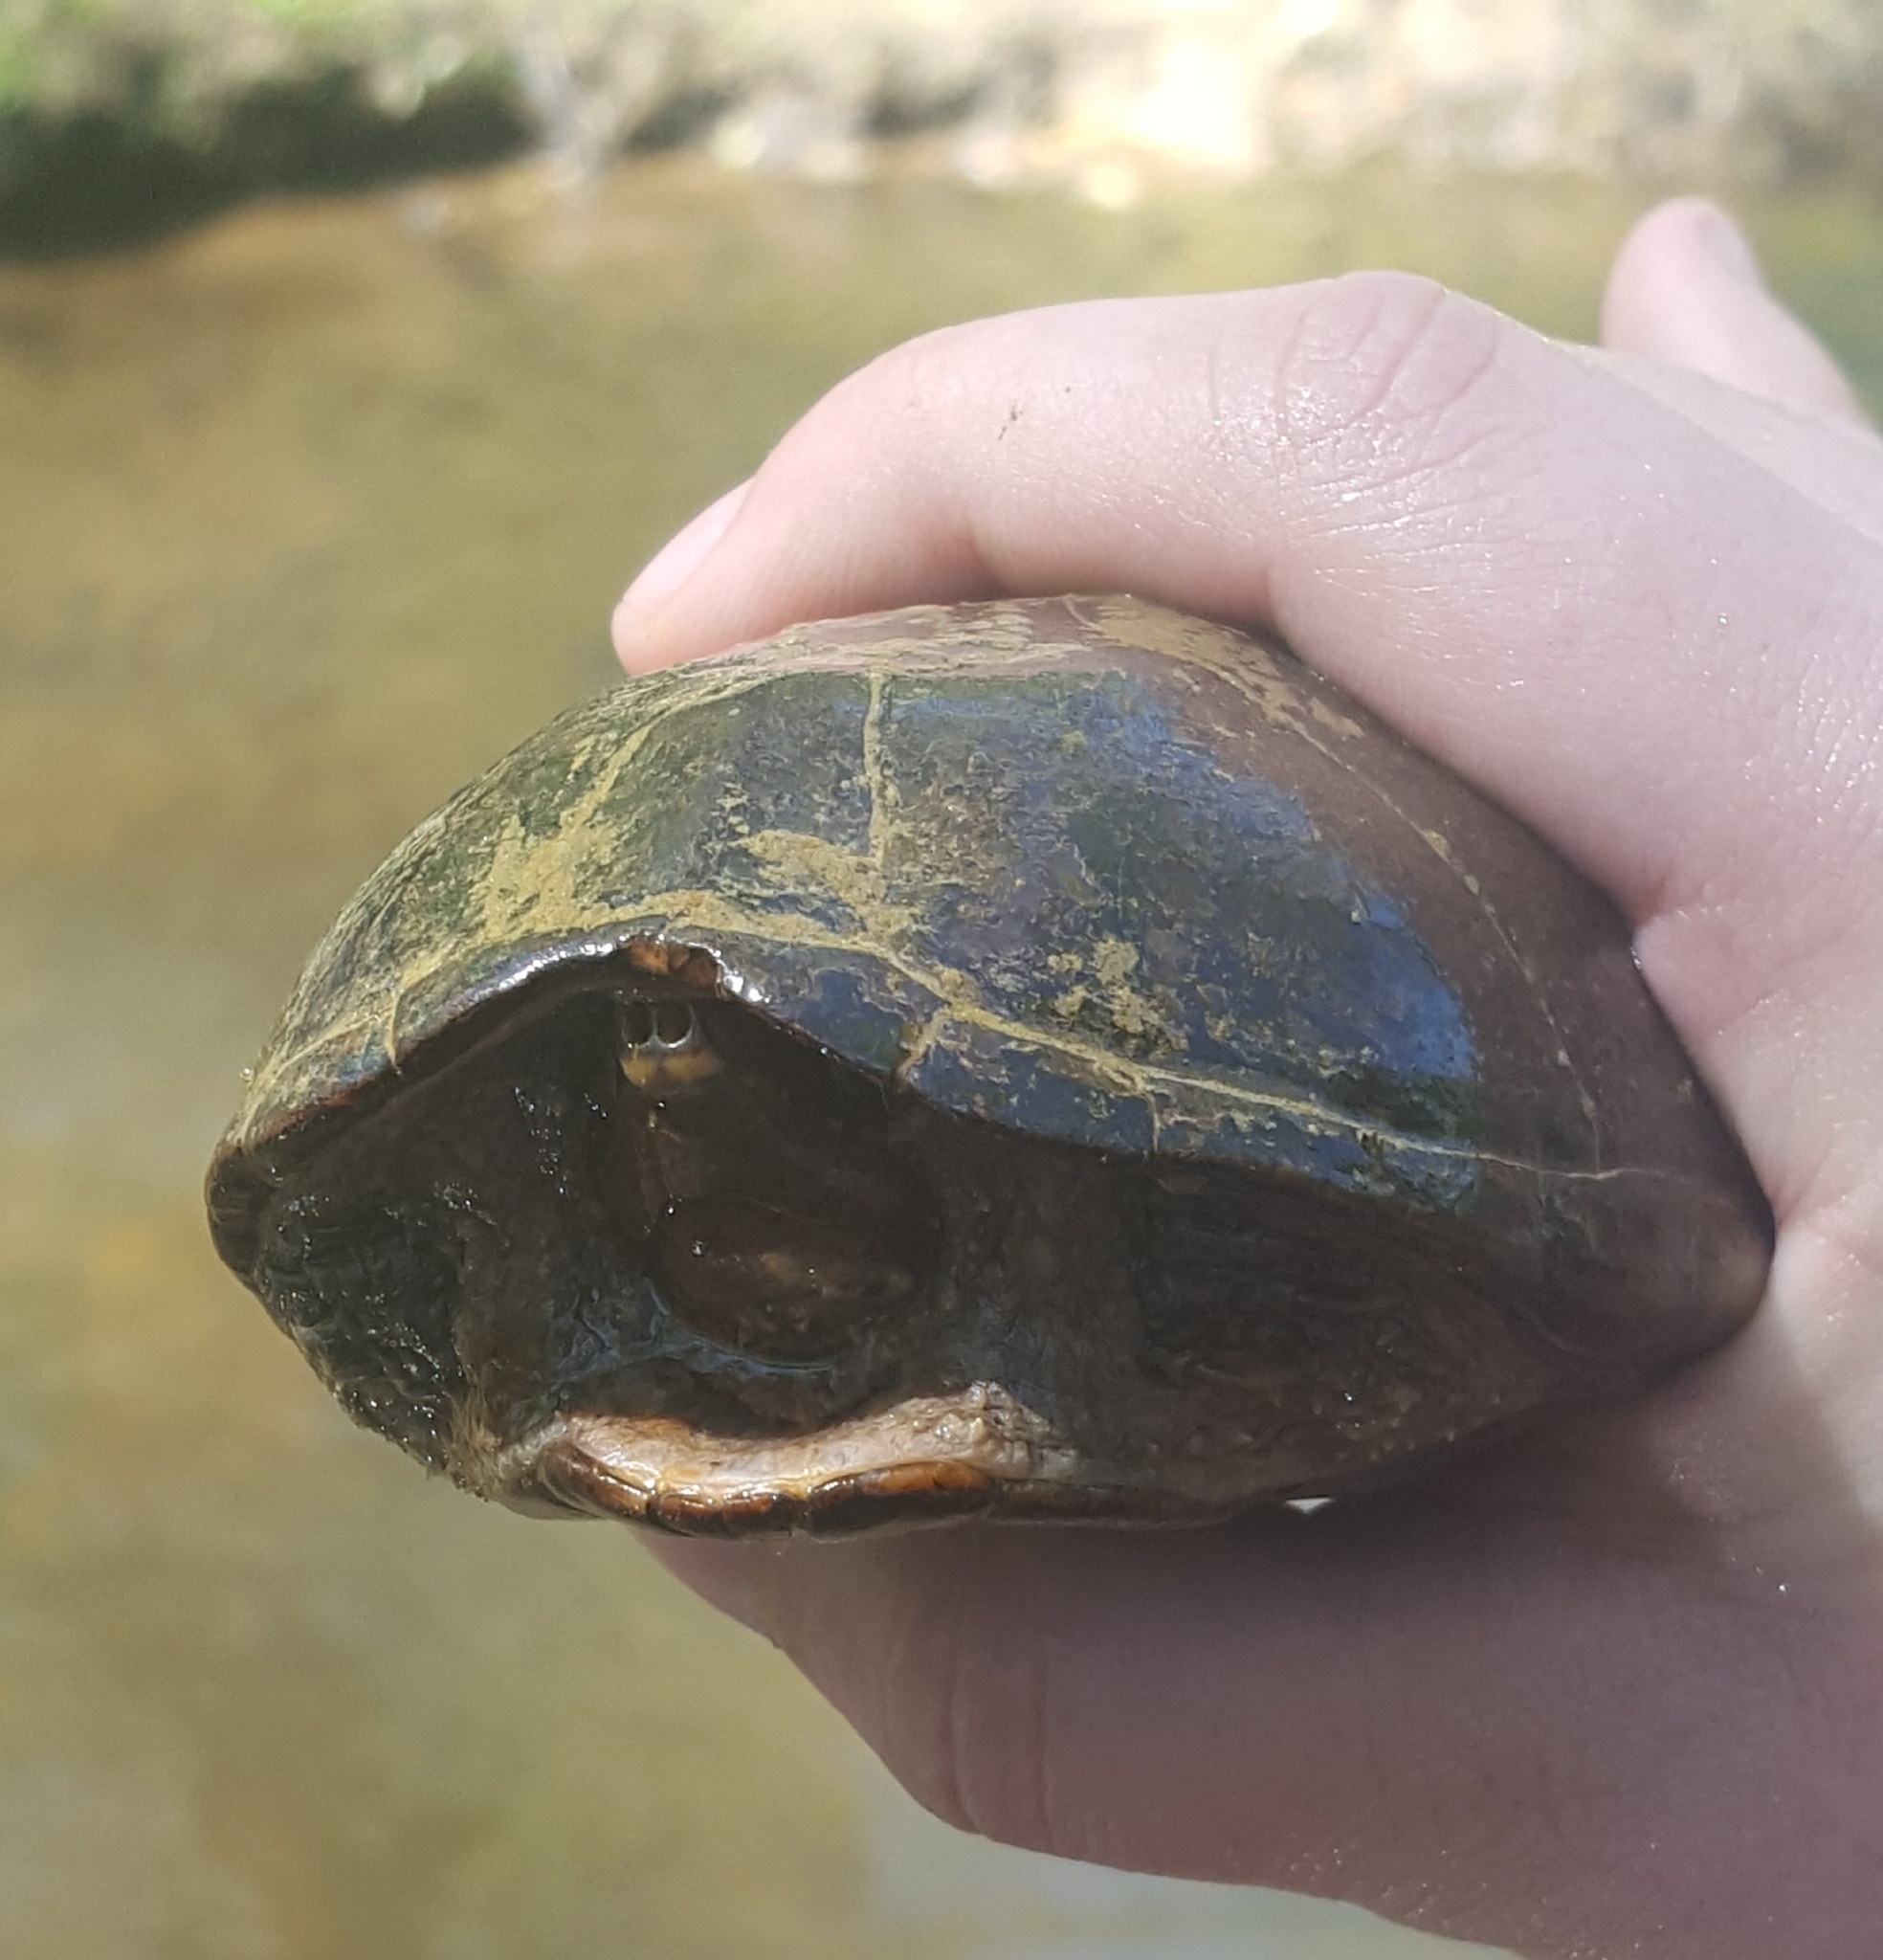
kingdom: Animalia
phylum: Chordata
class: Testudines
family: Kinosternidae
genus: Sternotherus
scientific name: Sternotherus odoratus
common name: Common musk turtle
